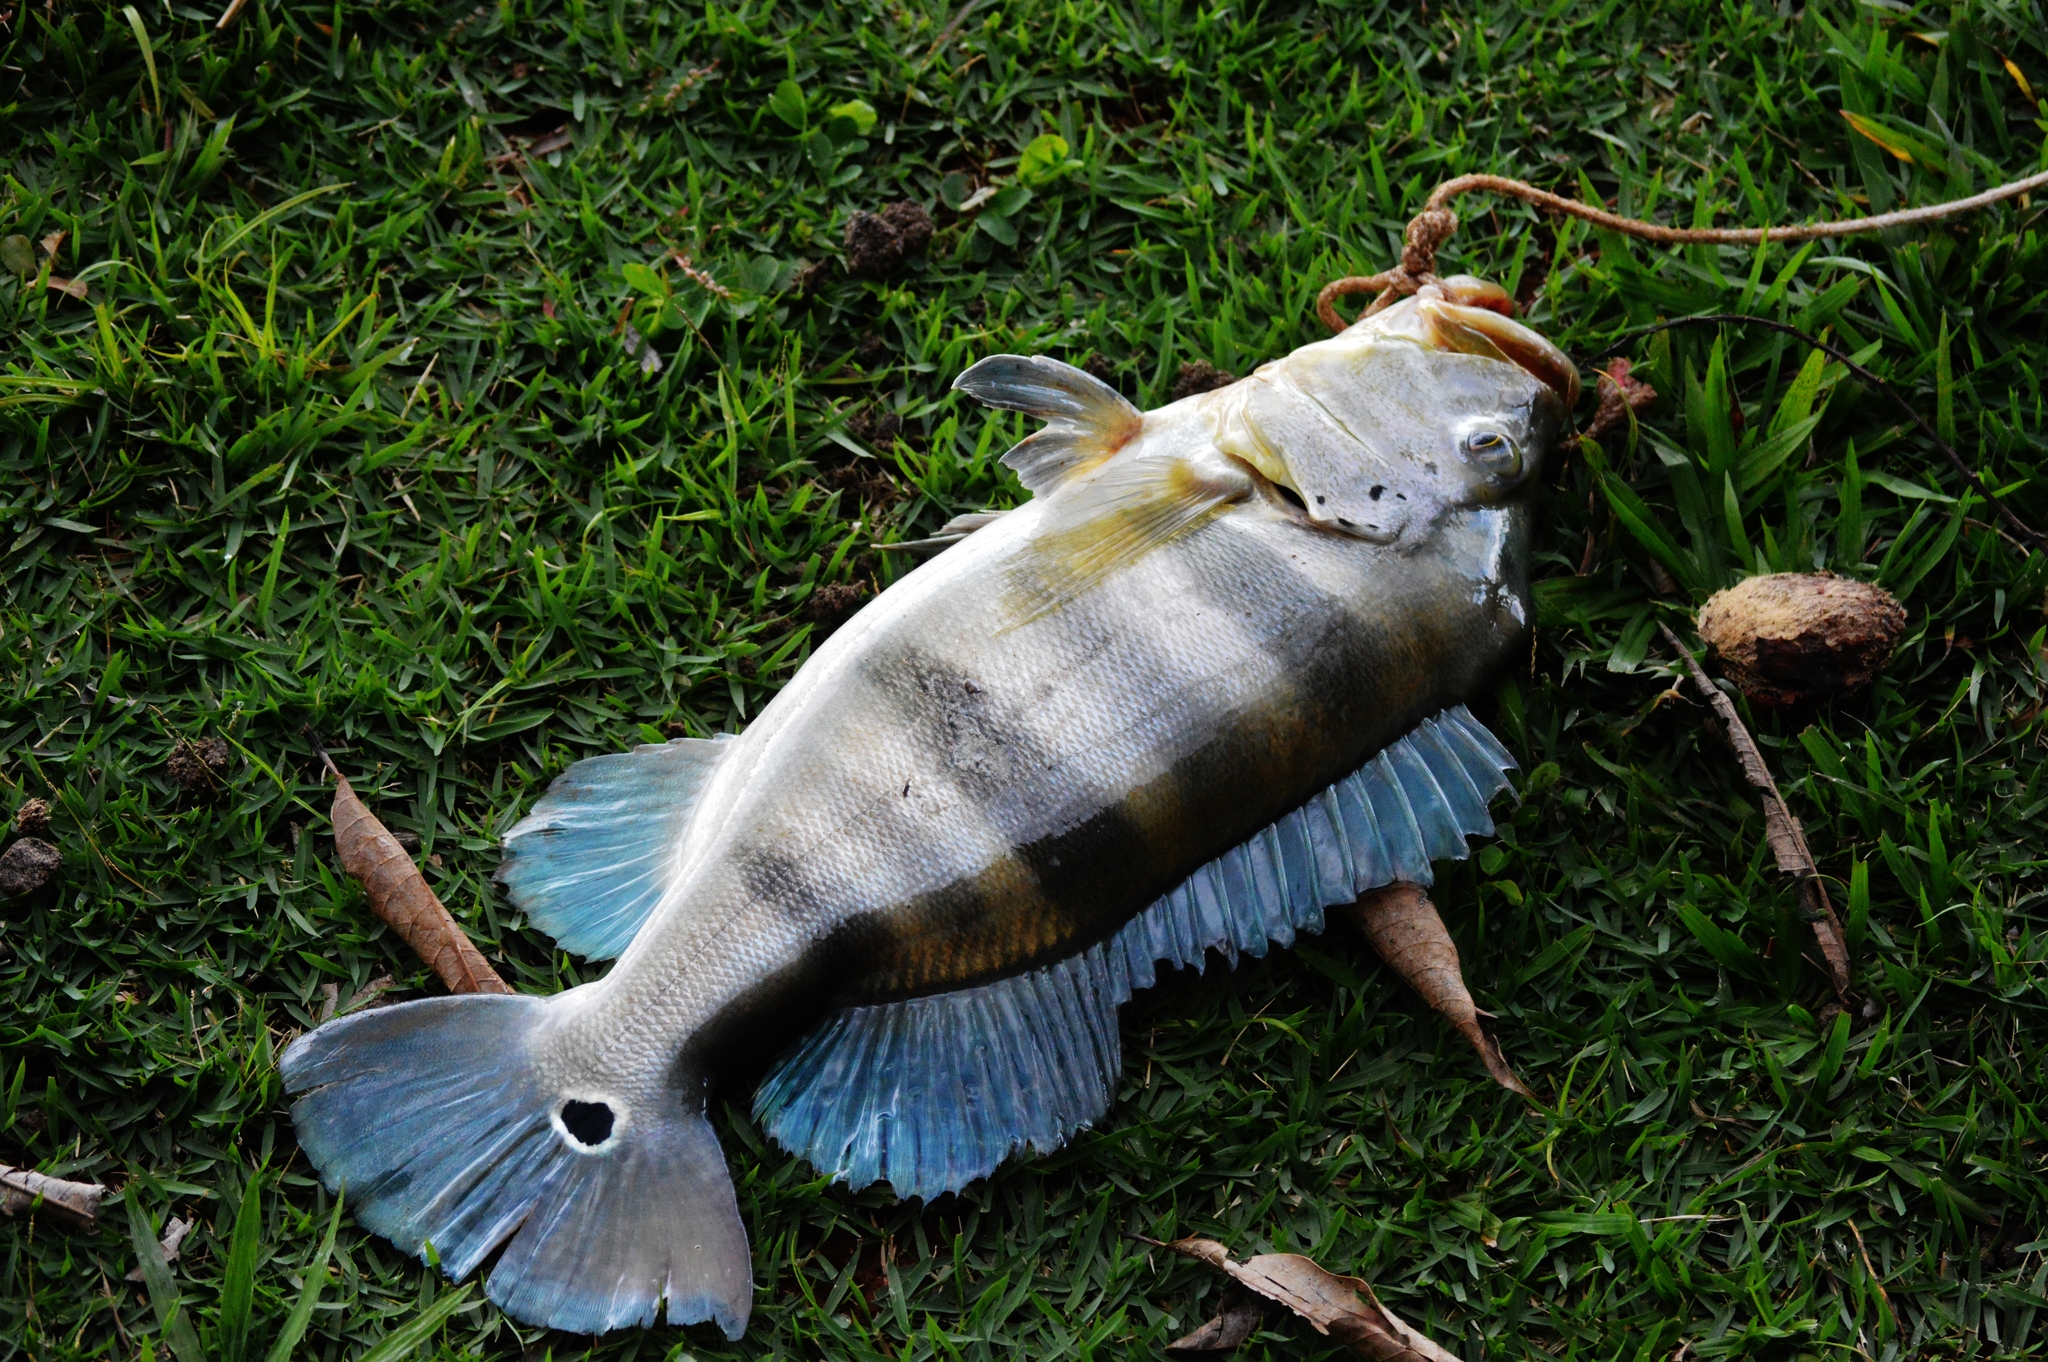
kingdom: Animalia
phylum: Chordata
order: Perciformes
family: Cichlidae
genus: Cichla
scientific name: Cichla piquiti
